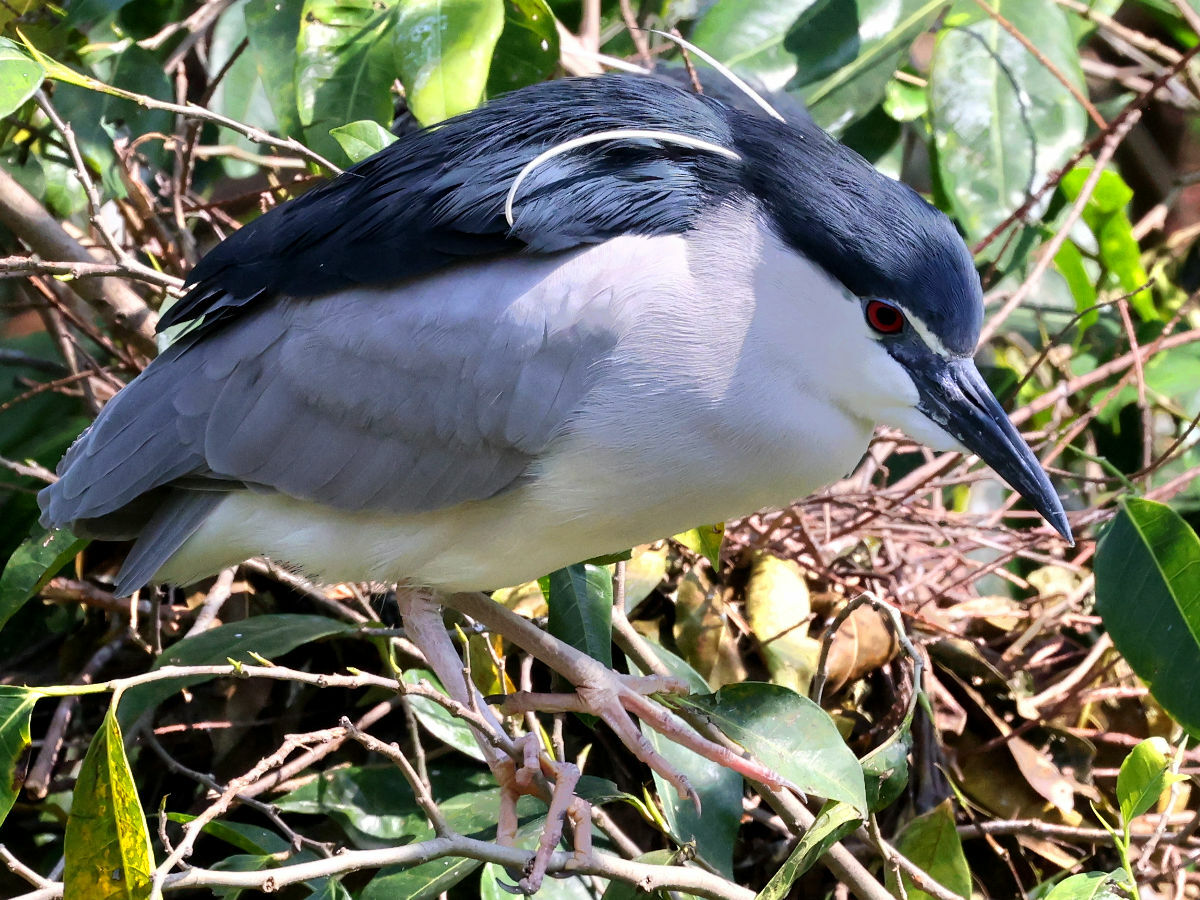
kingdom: Animalia
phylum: Chordata
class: Aves
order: Pelecaniformes
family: Ardeidae
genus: Nycticorax
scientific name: Nycticorax nycticorax
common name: Black-crowned night heron
